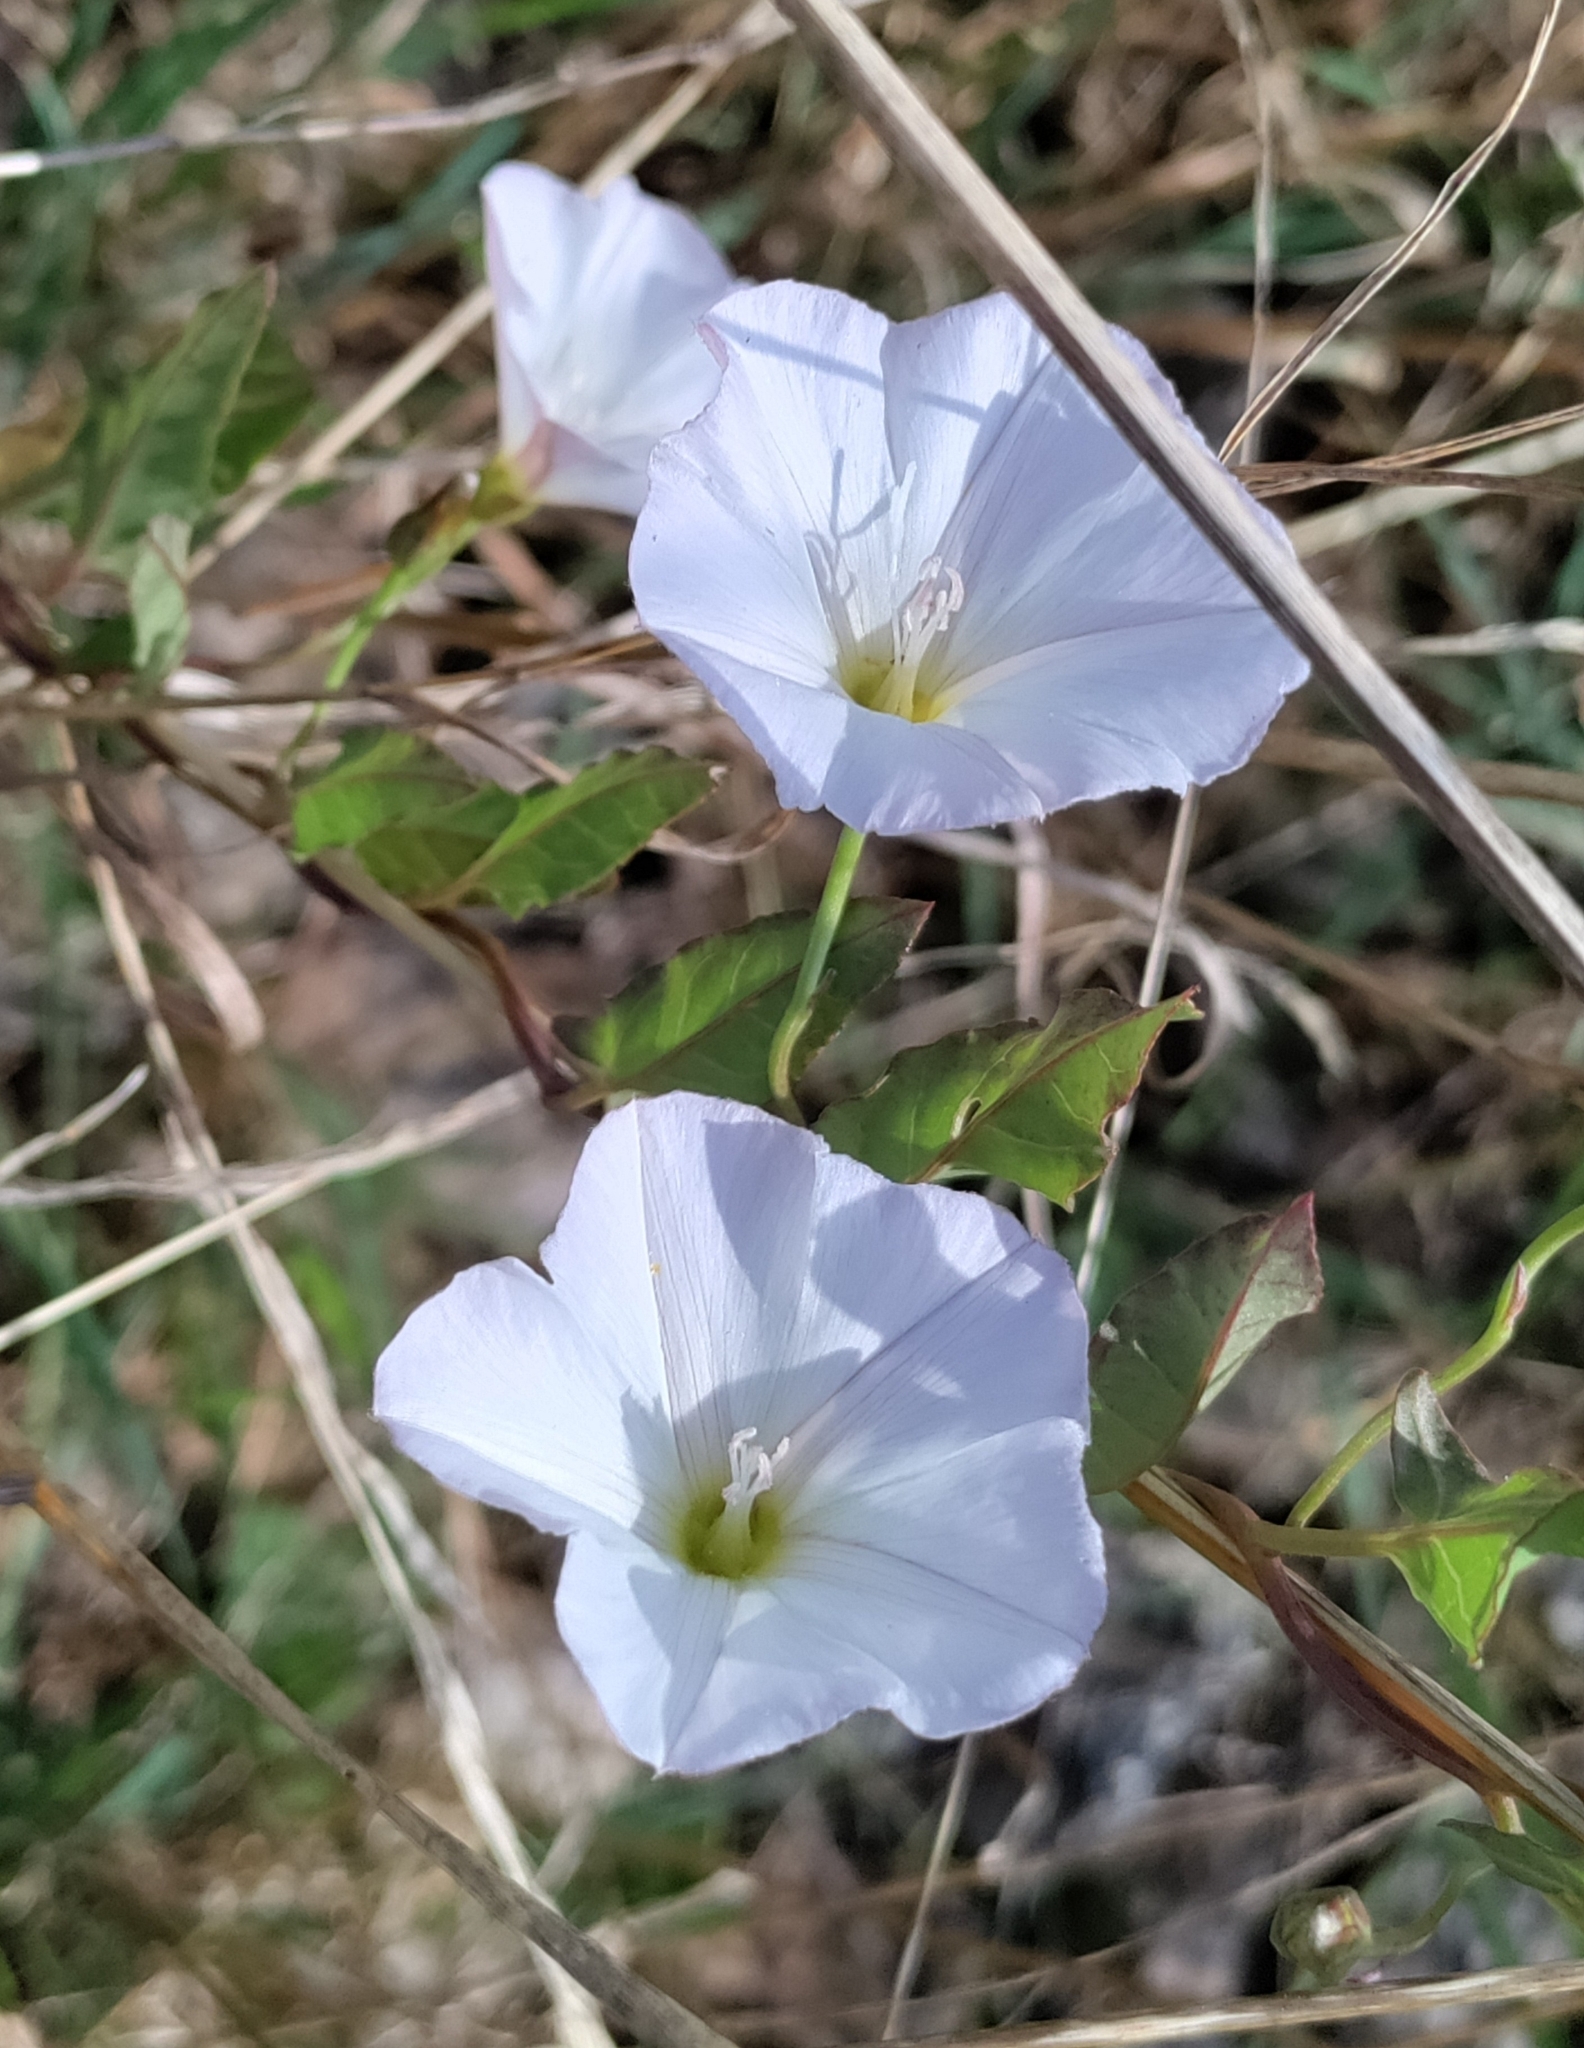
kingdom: Plantae
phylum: Tracheophyta
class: Magnoliopsida
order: Solanales
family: Convolvulaceae
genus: Convolvulus
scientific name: Convolvulus arvensis
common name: Field bindweed
